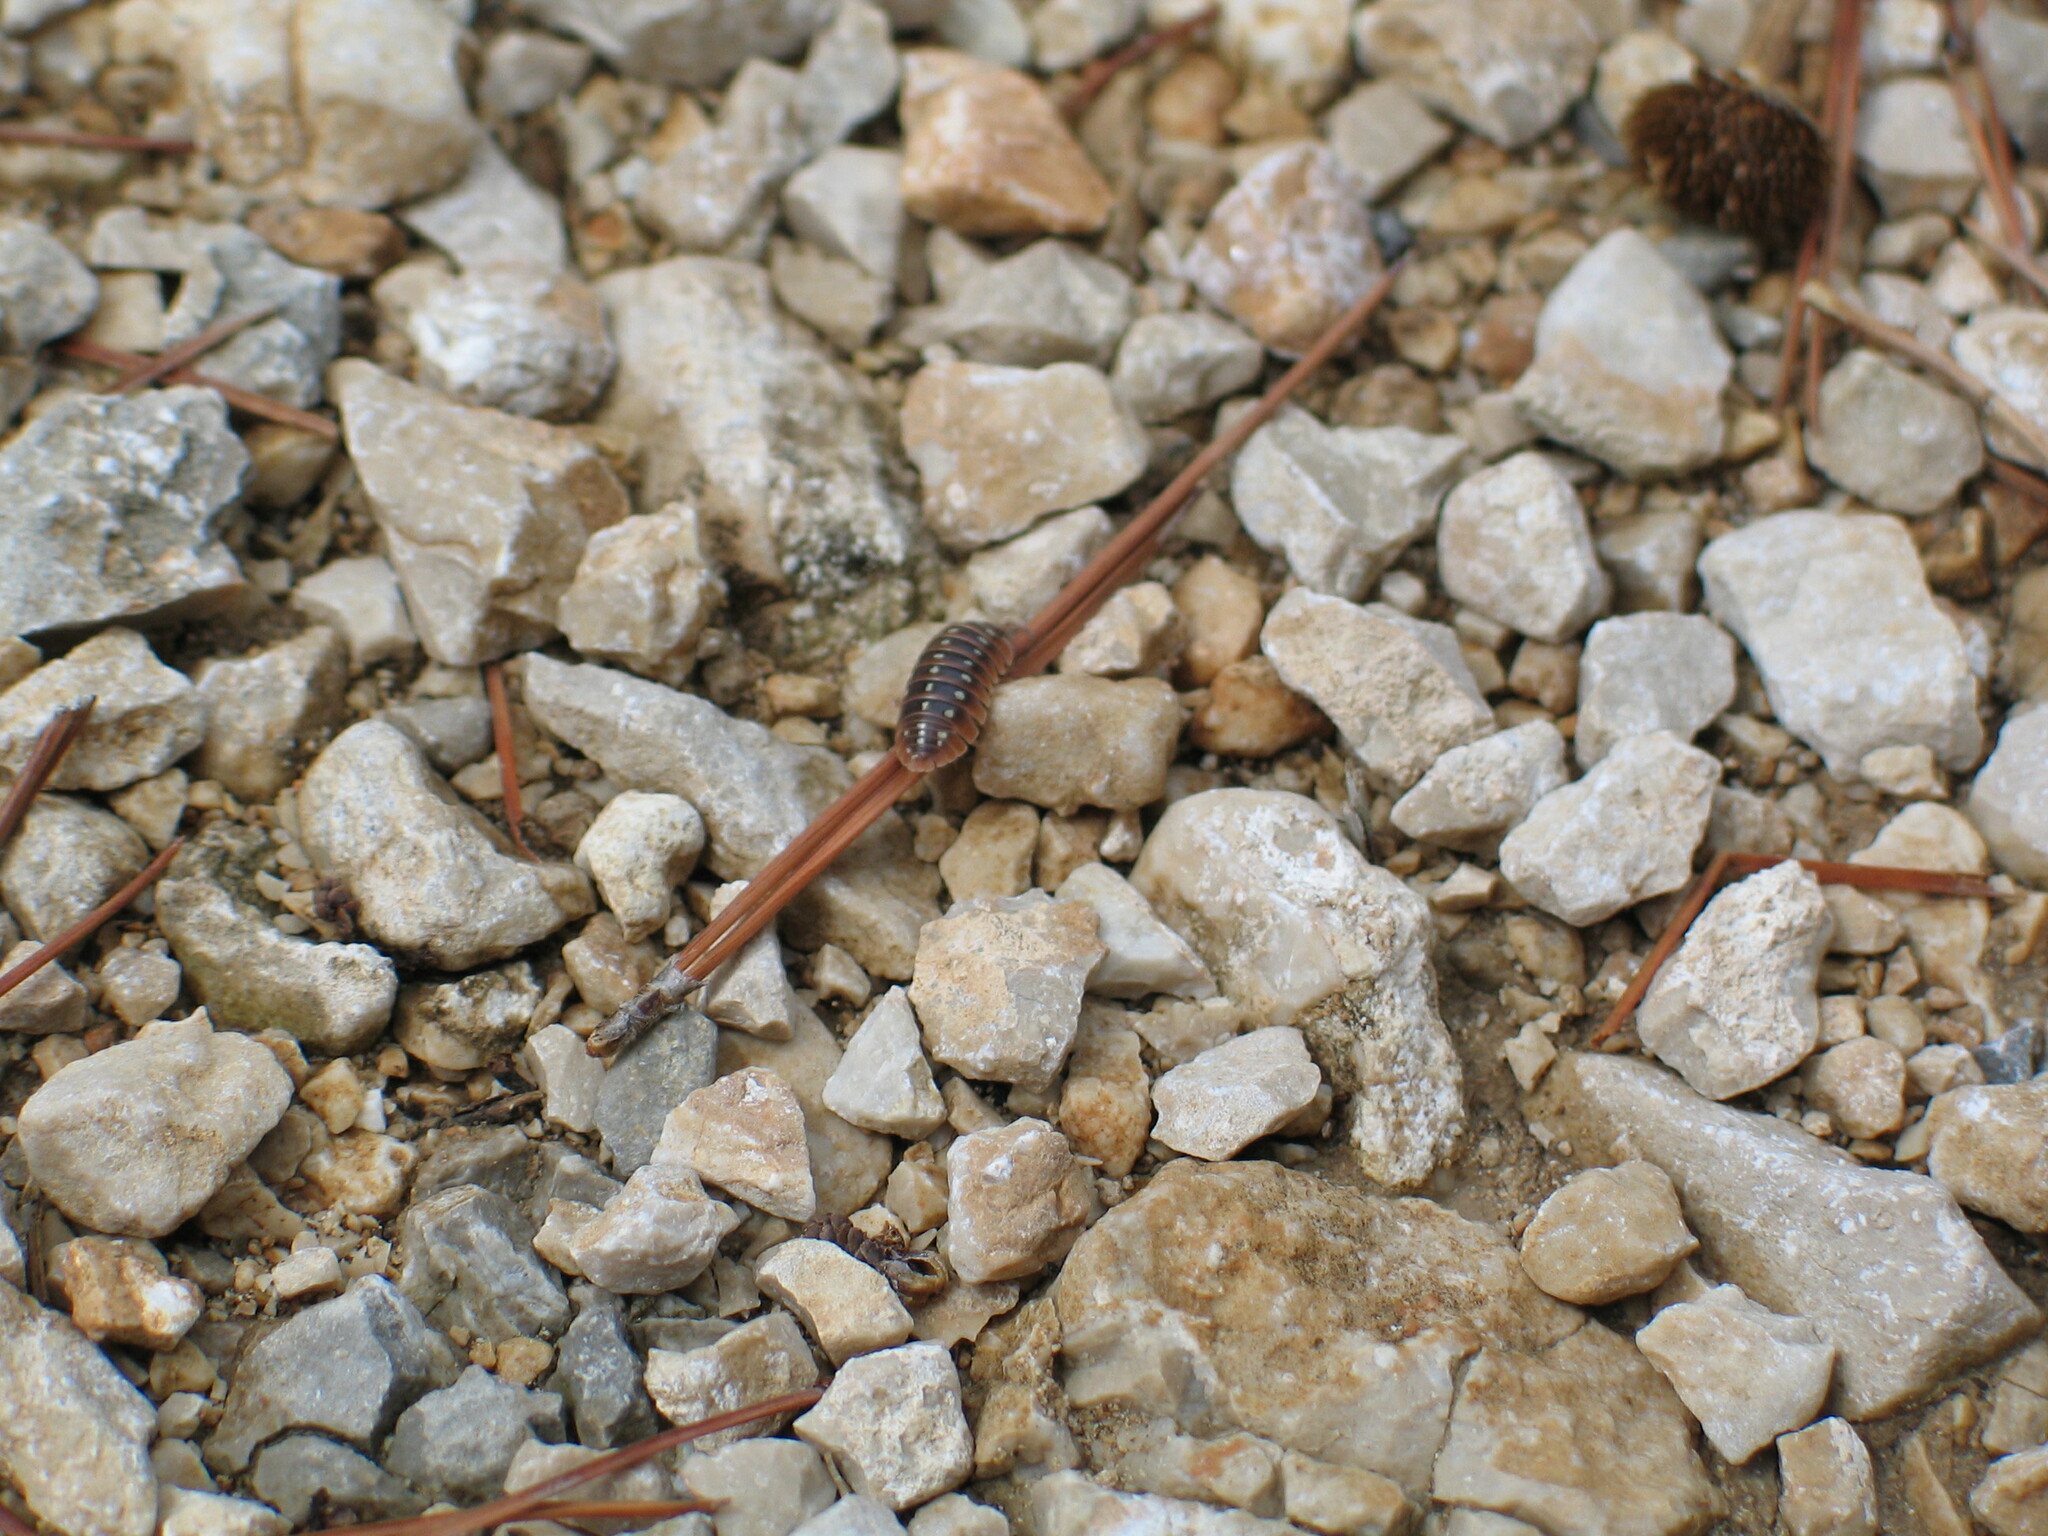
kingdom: Animalia
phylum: Arthropoda
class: Malacostraca
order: Isopoda
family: Armadillidiidae
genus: Armadillidium
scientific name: Armadillidium klugii
